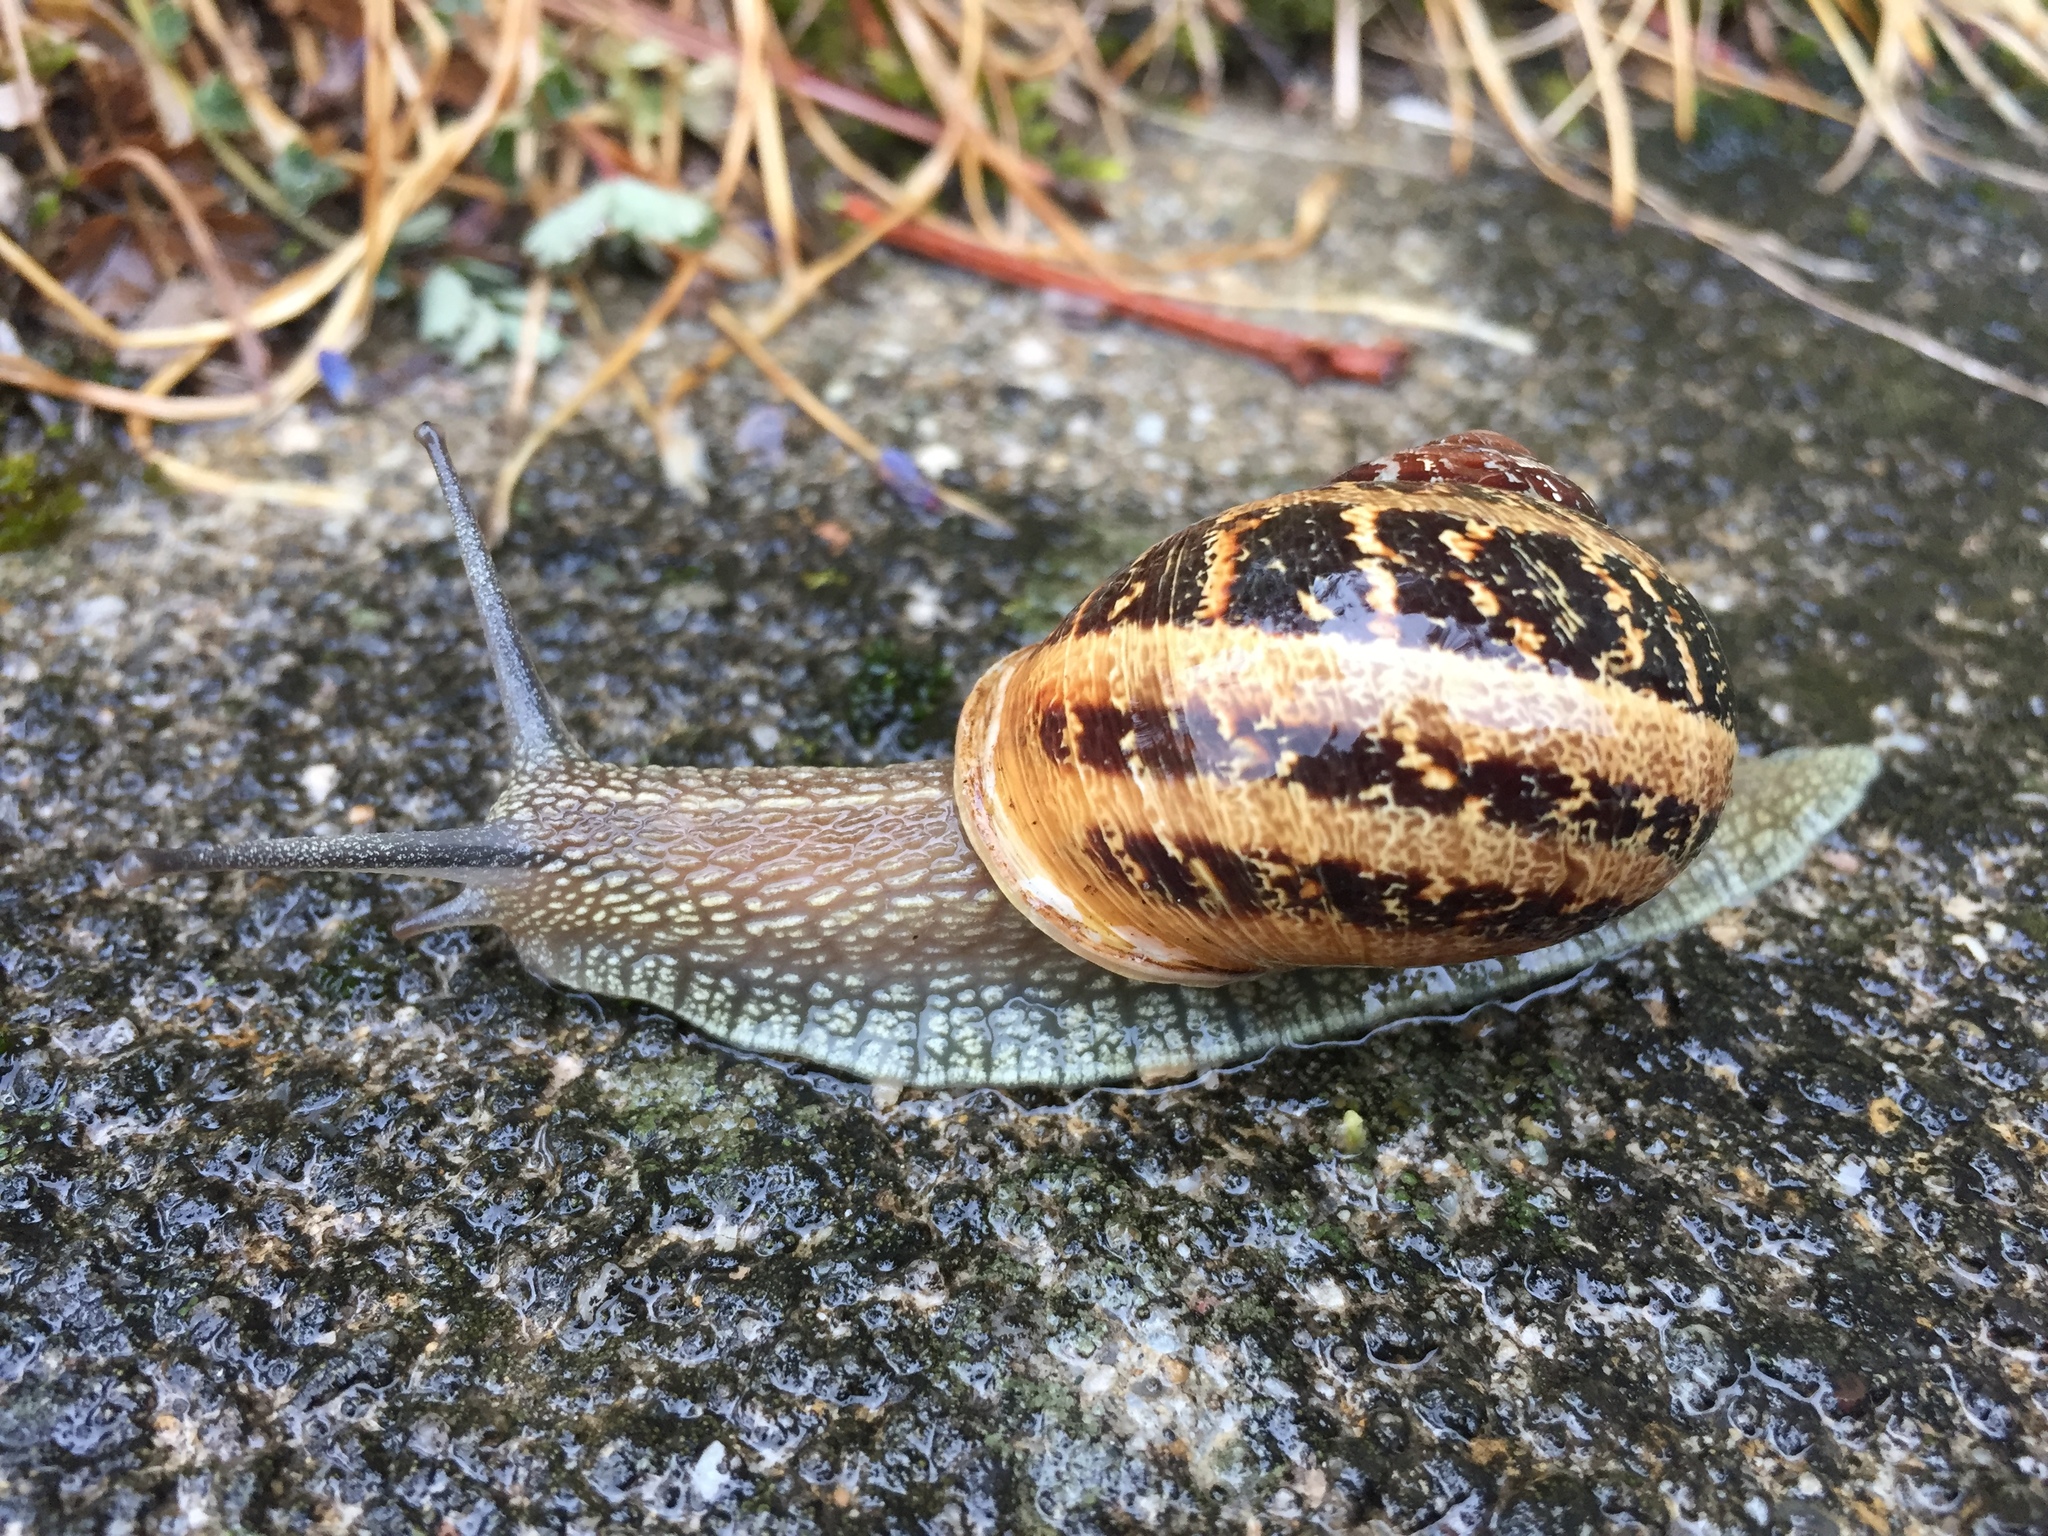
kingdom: Animalia
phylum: Mollusca
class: Gastropoda
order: Stylommatophora
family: Helicidae
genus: Cornu
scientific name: Cornu aspersum
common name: Brown garden snail
